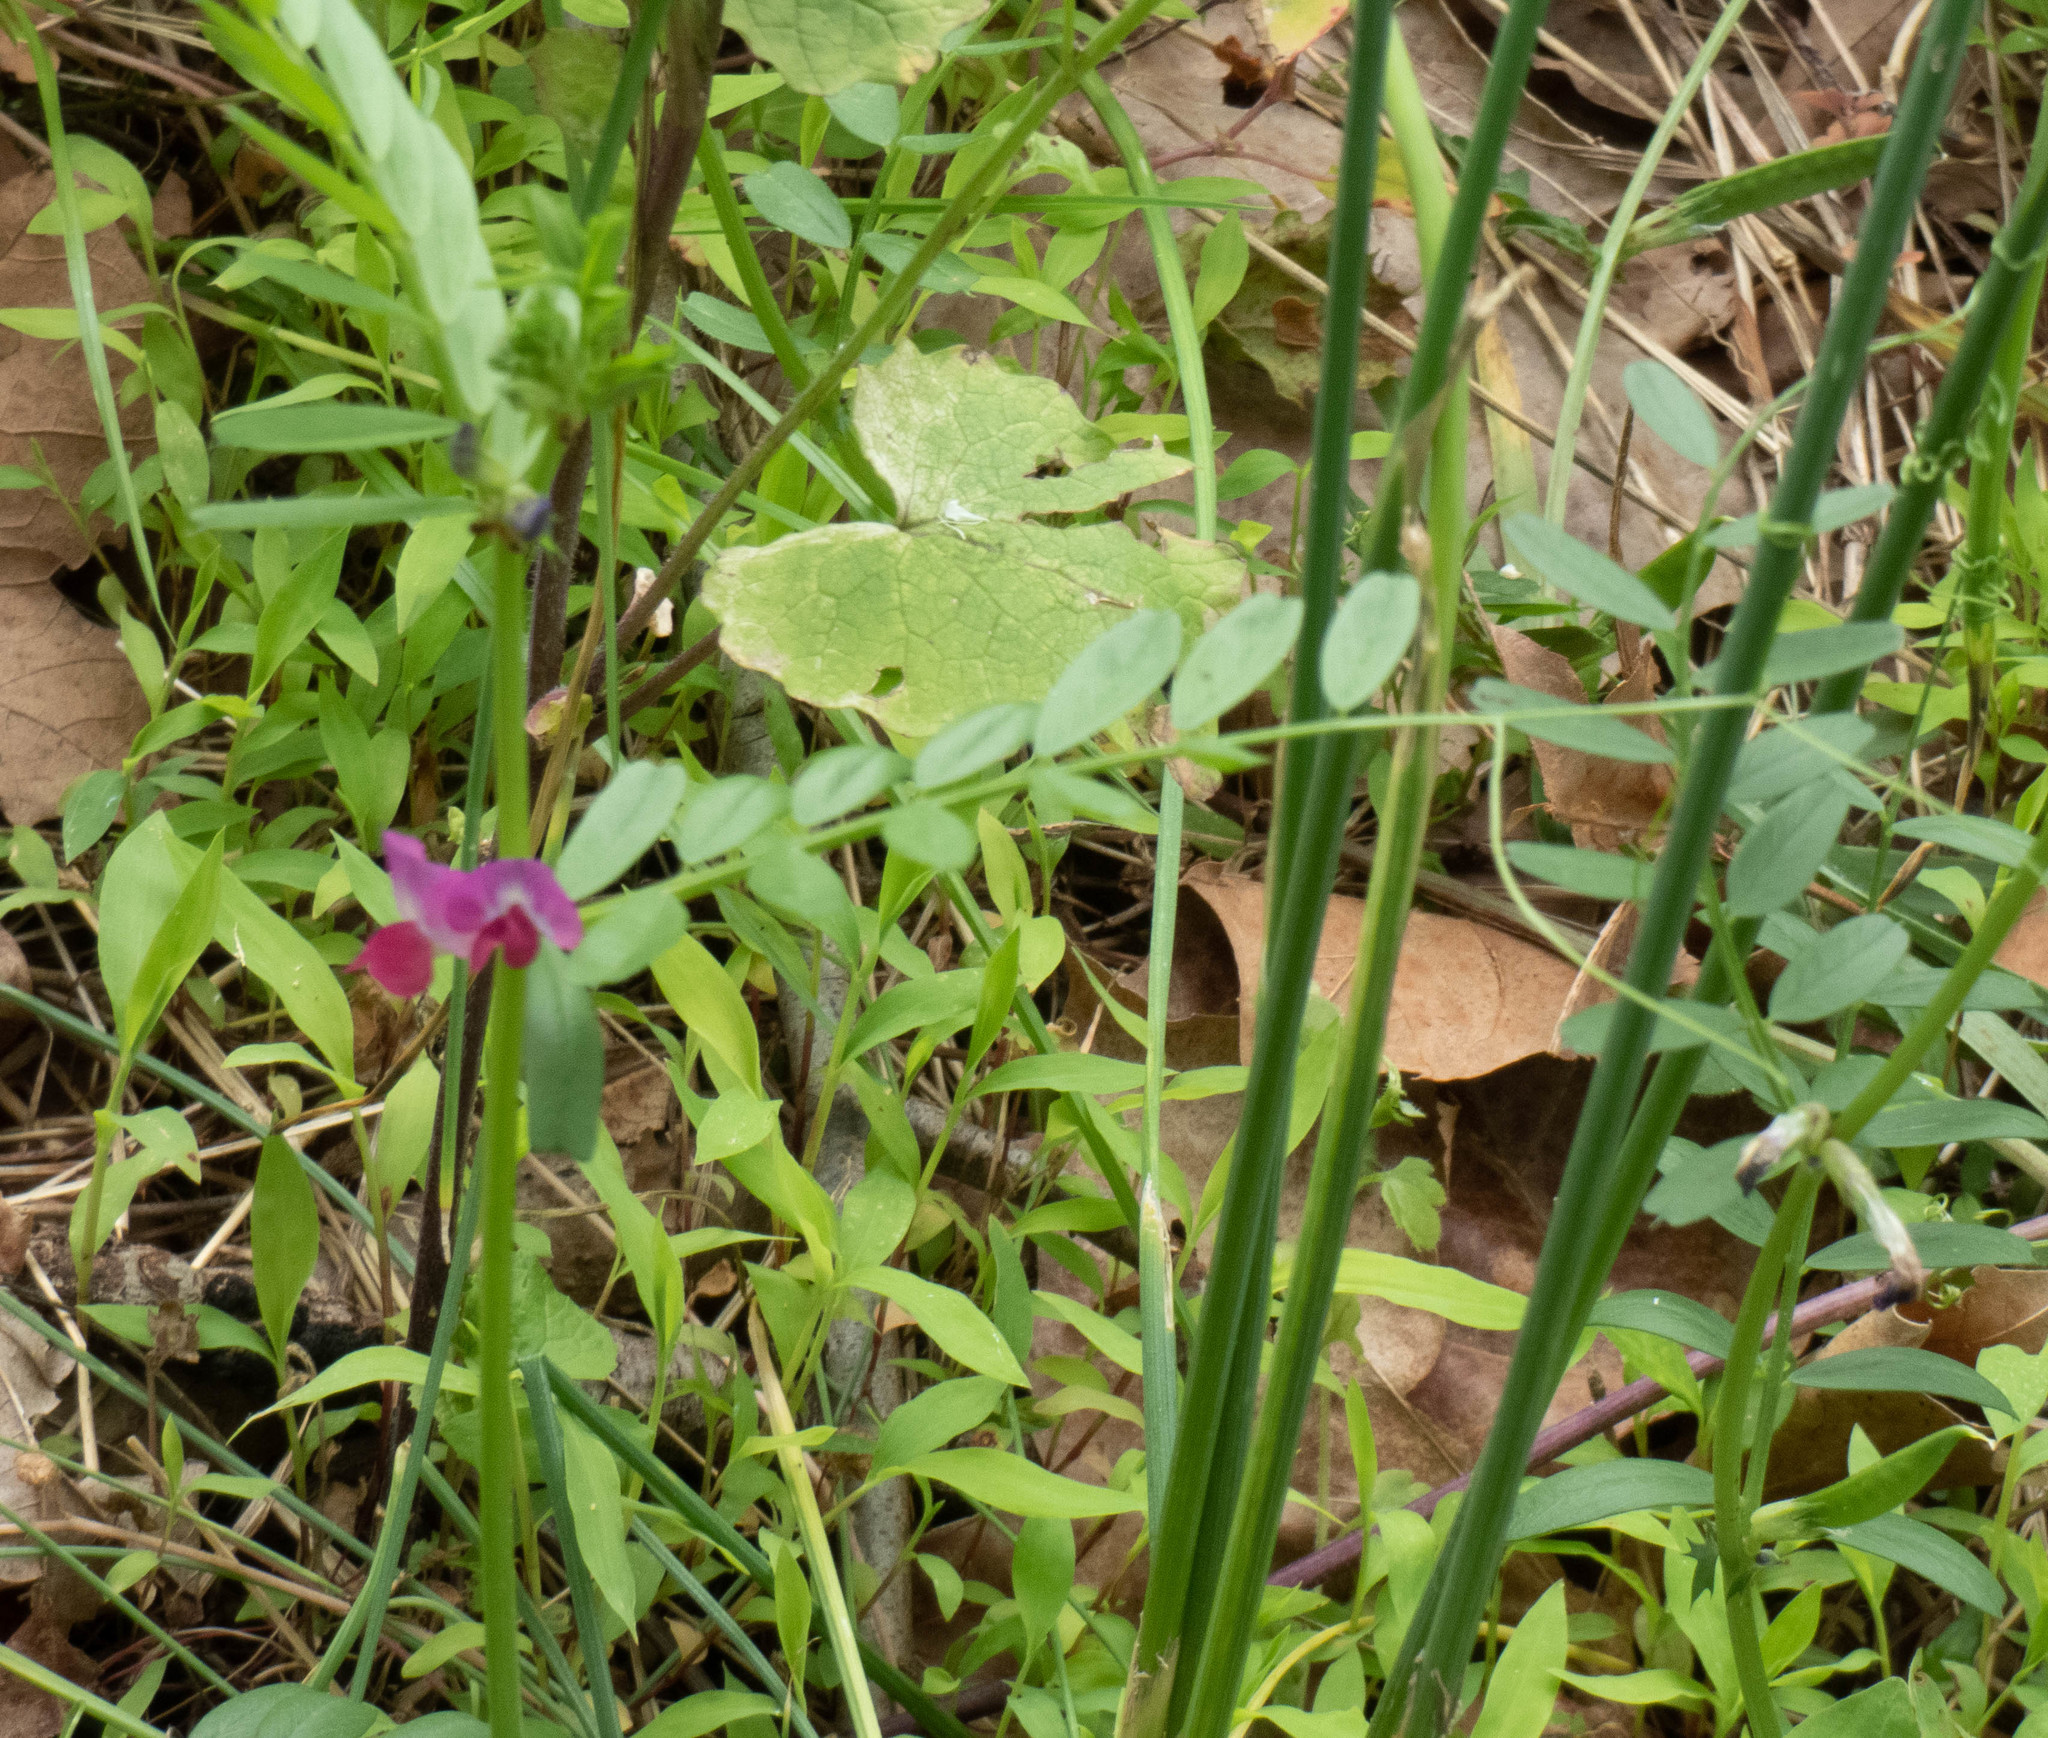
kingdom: Plantae
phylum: Tracheophyta
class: Magnoliopsida
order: Fabales
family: Fabaceae
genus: Vicia
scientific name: Vicia sativa
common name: Garden vetch
